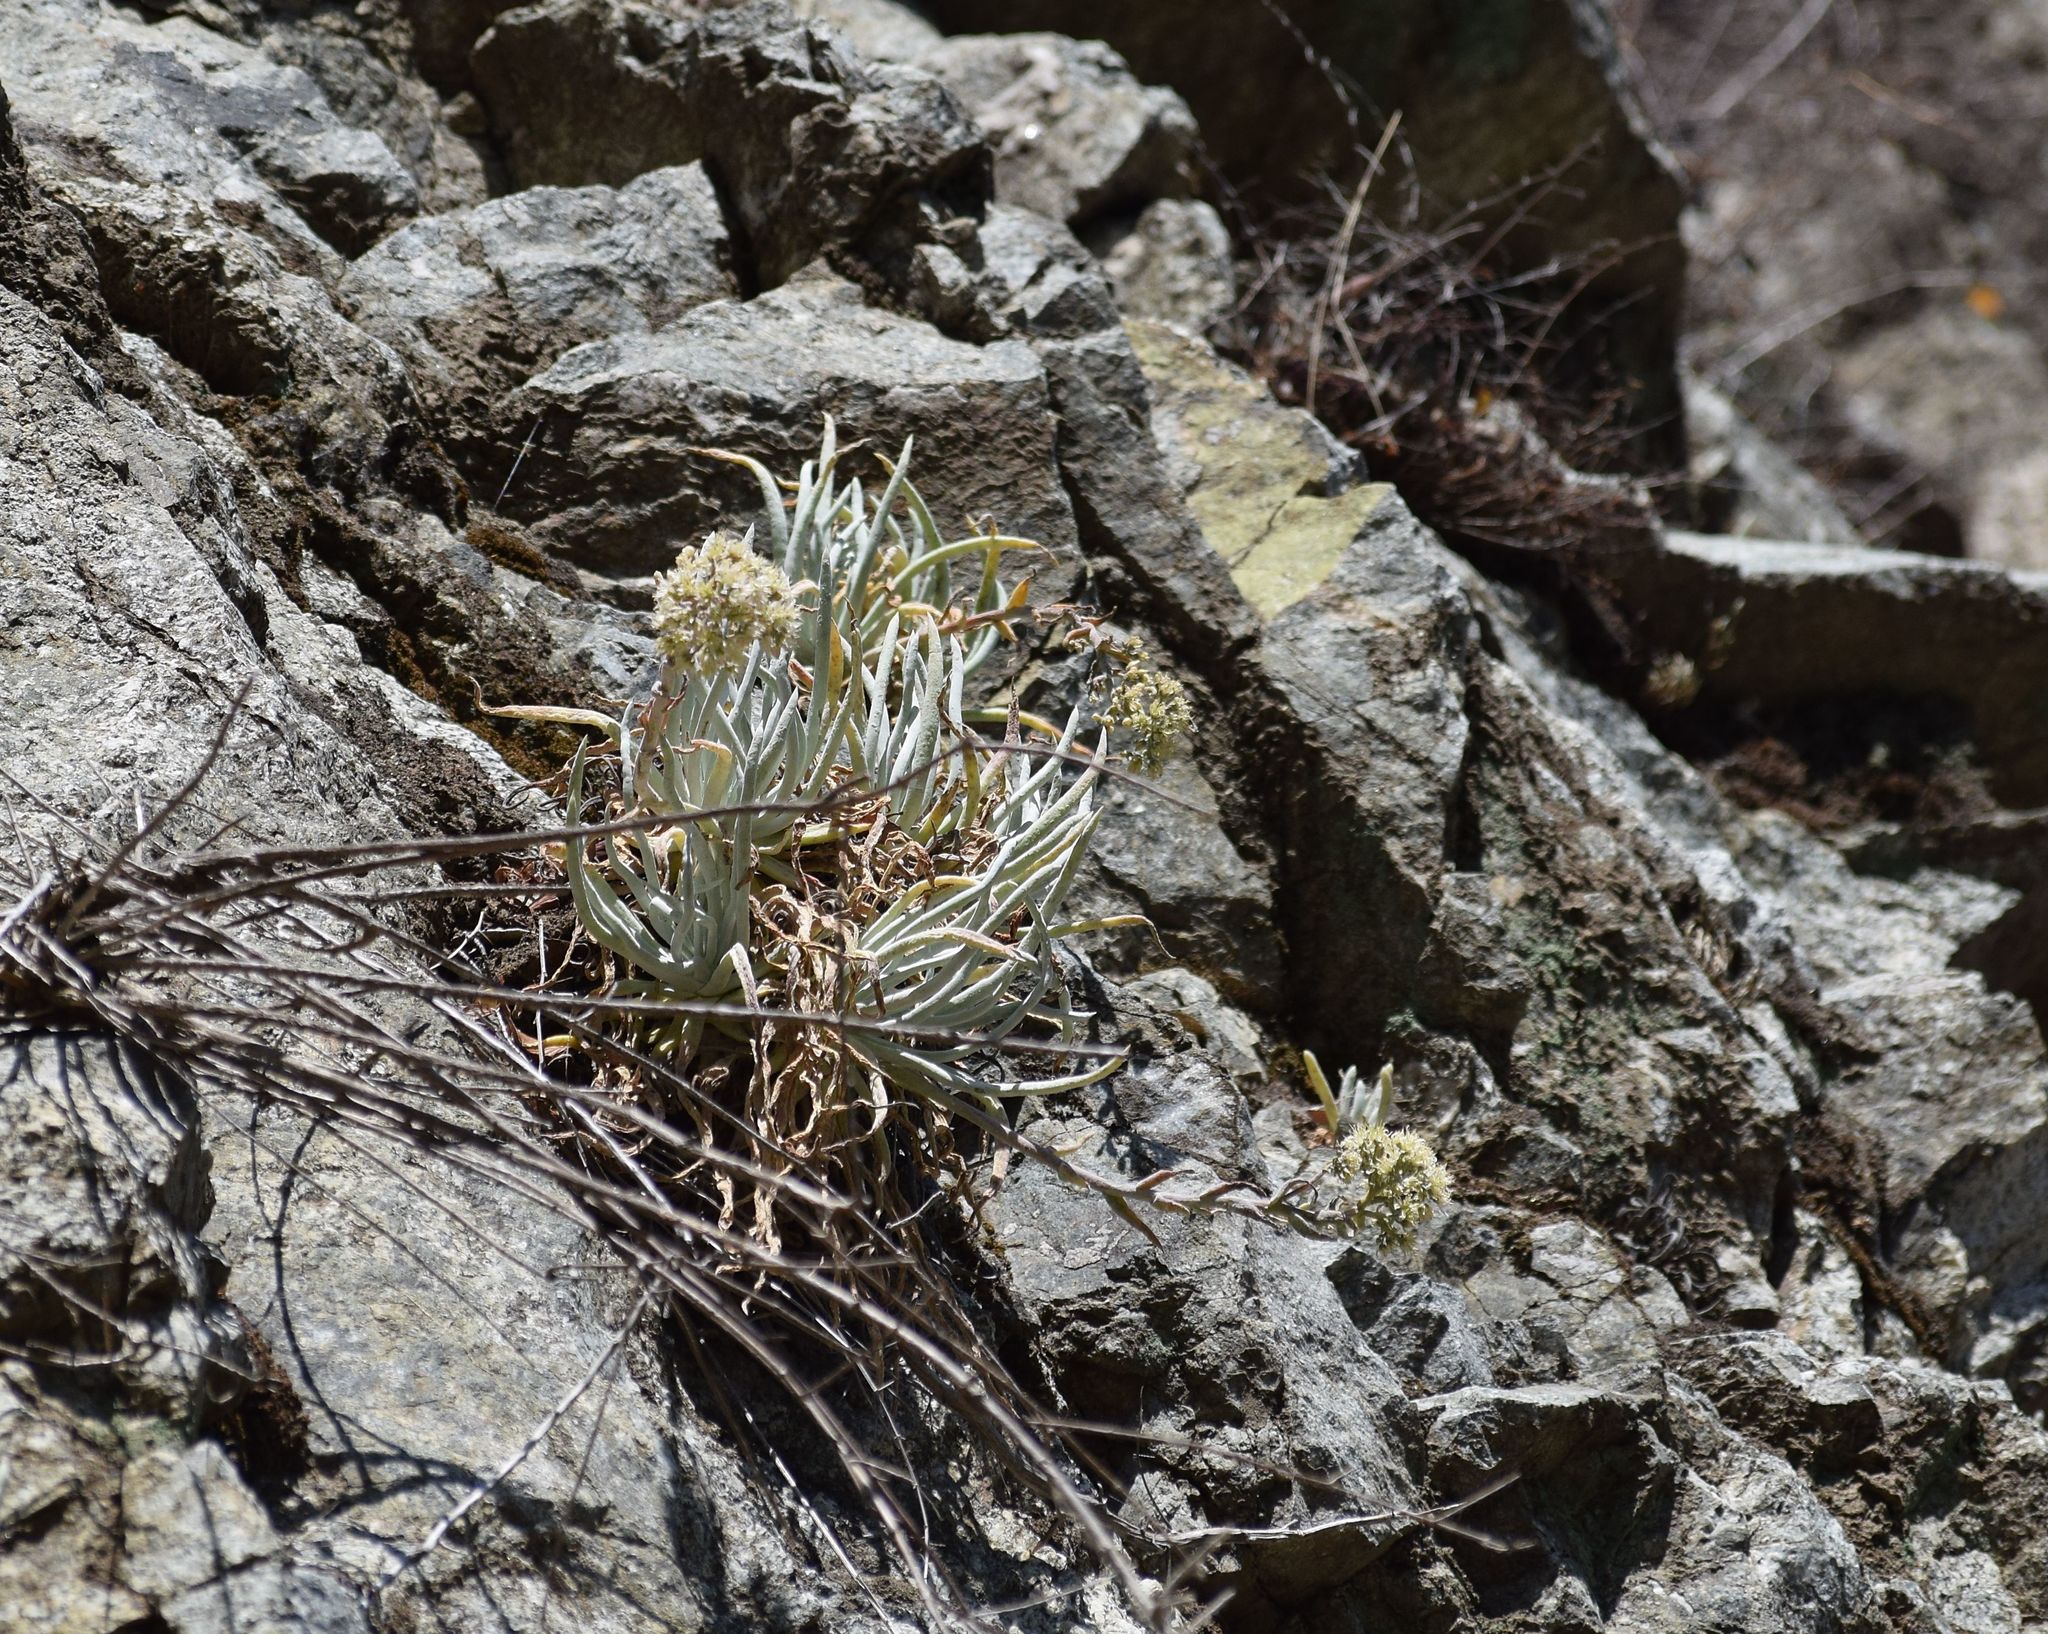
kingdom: Plantae
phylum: Tracheophyta
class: Magnoliopsida
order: Saxifragales
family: Crassulaceae
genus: Dudleya
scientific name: Dudleya densiflora
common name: San gabriel mountains dudleya
